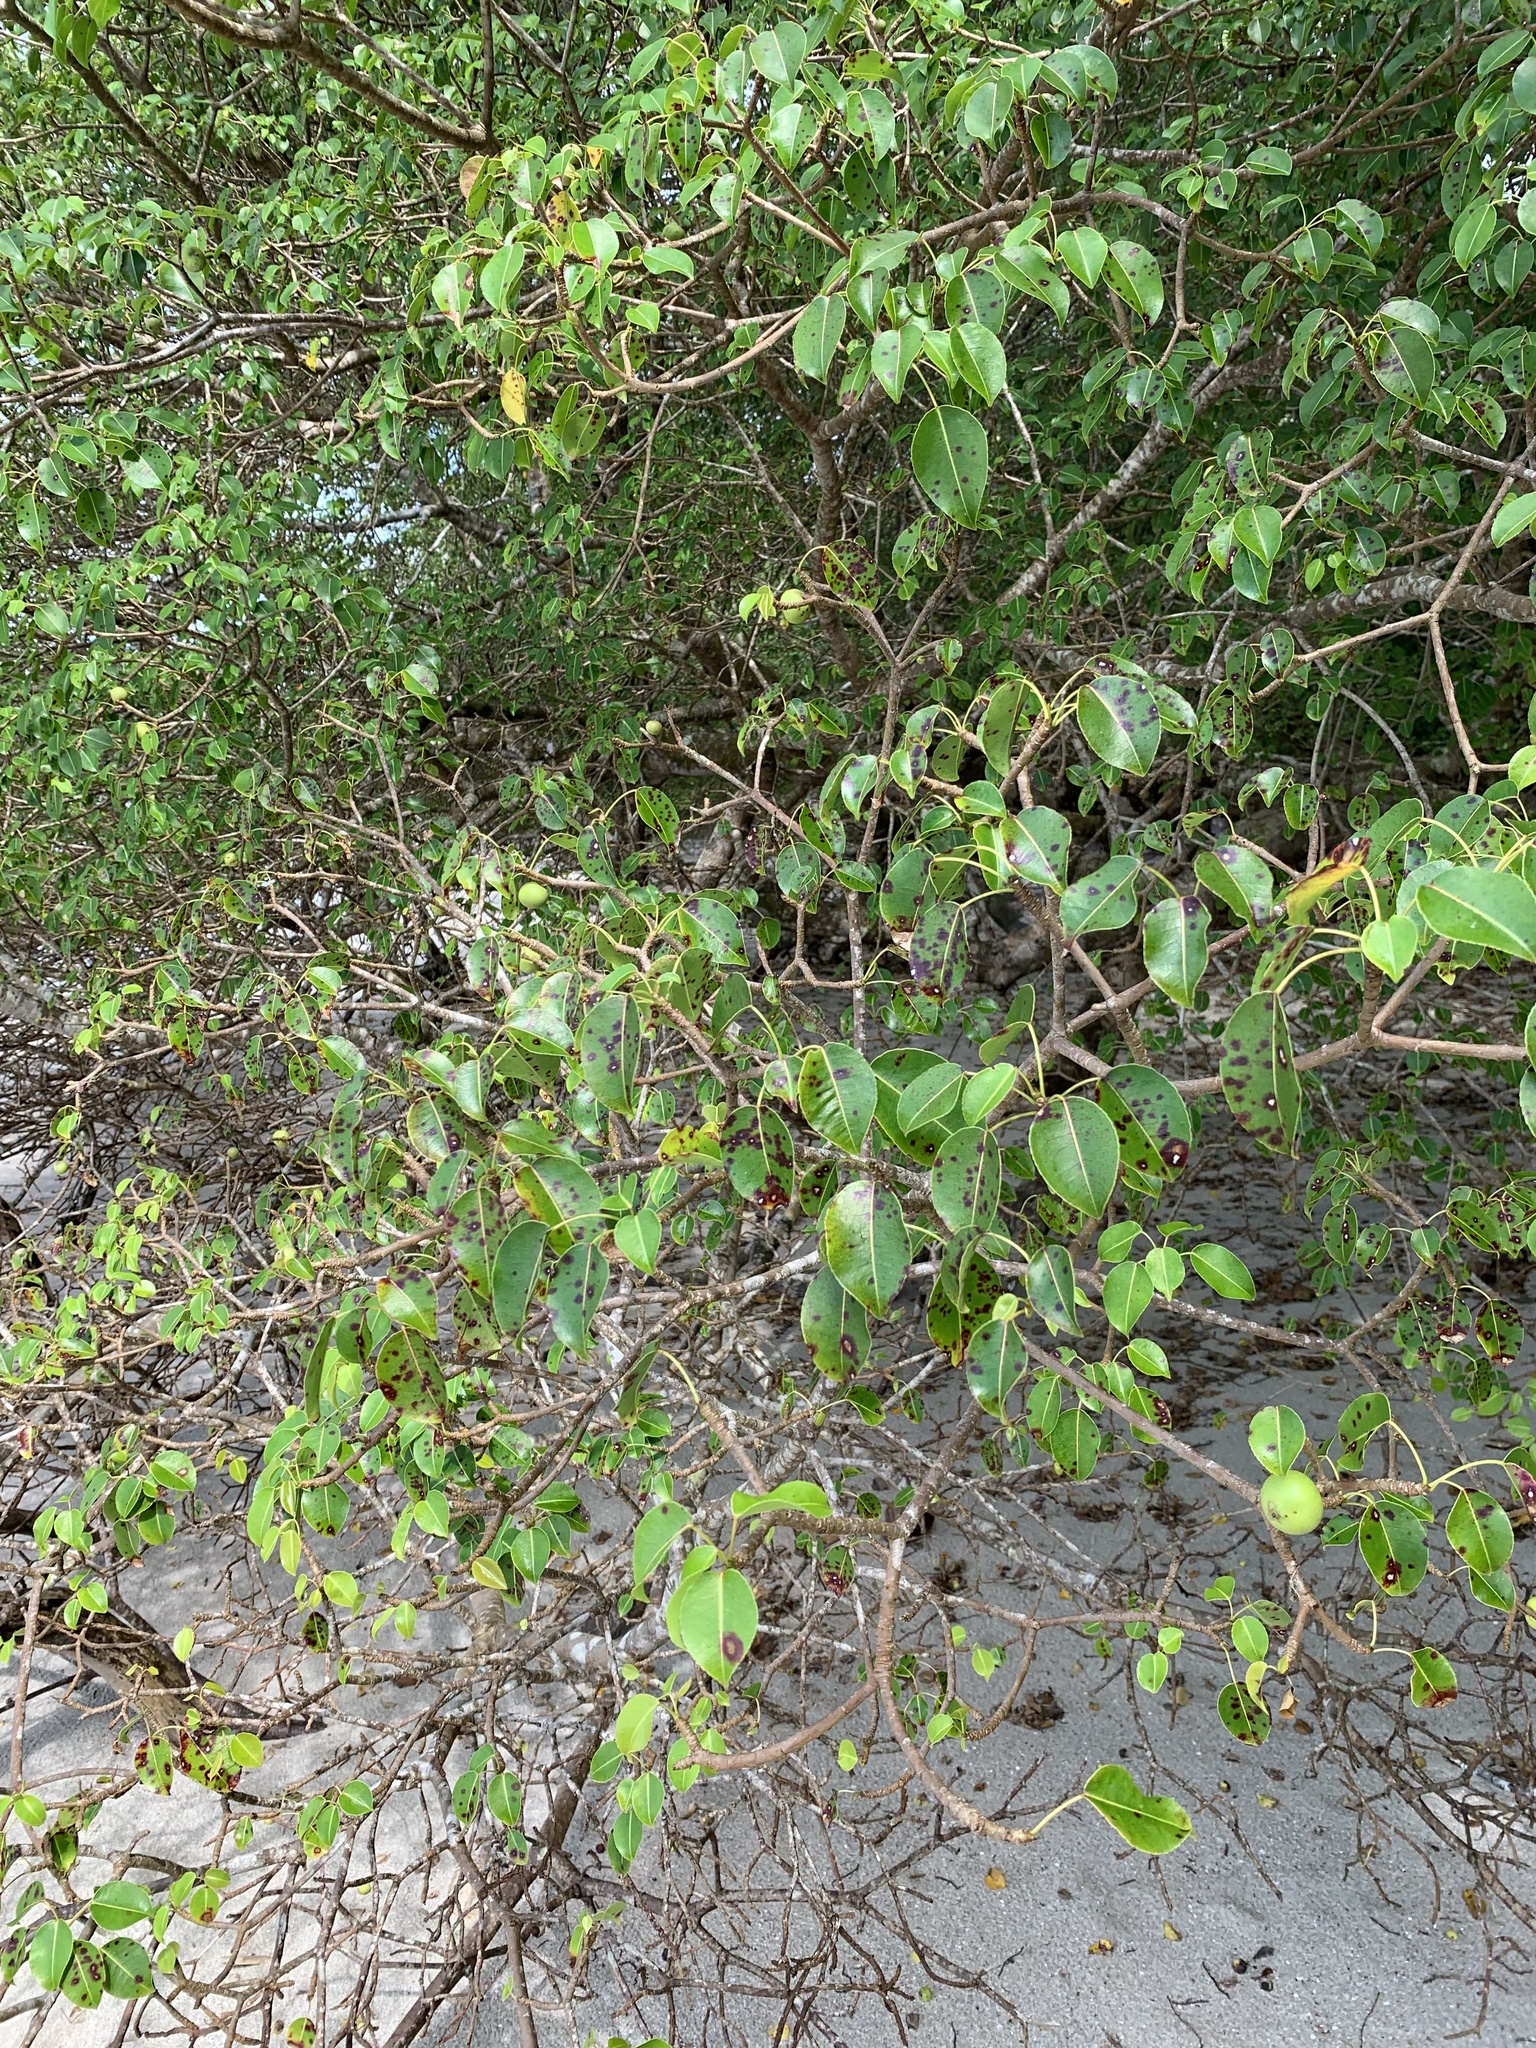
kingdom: Plantae
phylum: Tracheophyta
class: Magnoliopsida
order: Malpighiales
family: Euphorbiaceae
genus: Hippomane
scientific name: Hippomane mancinella
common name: Manchineel
